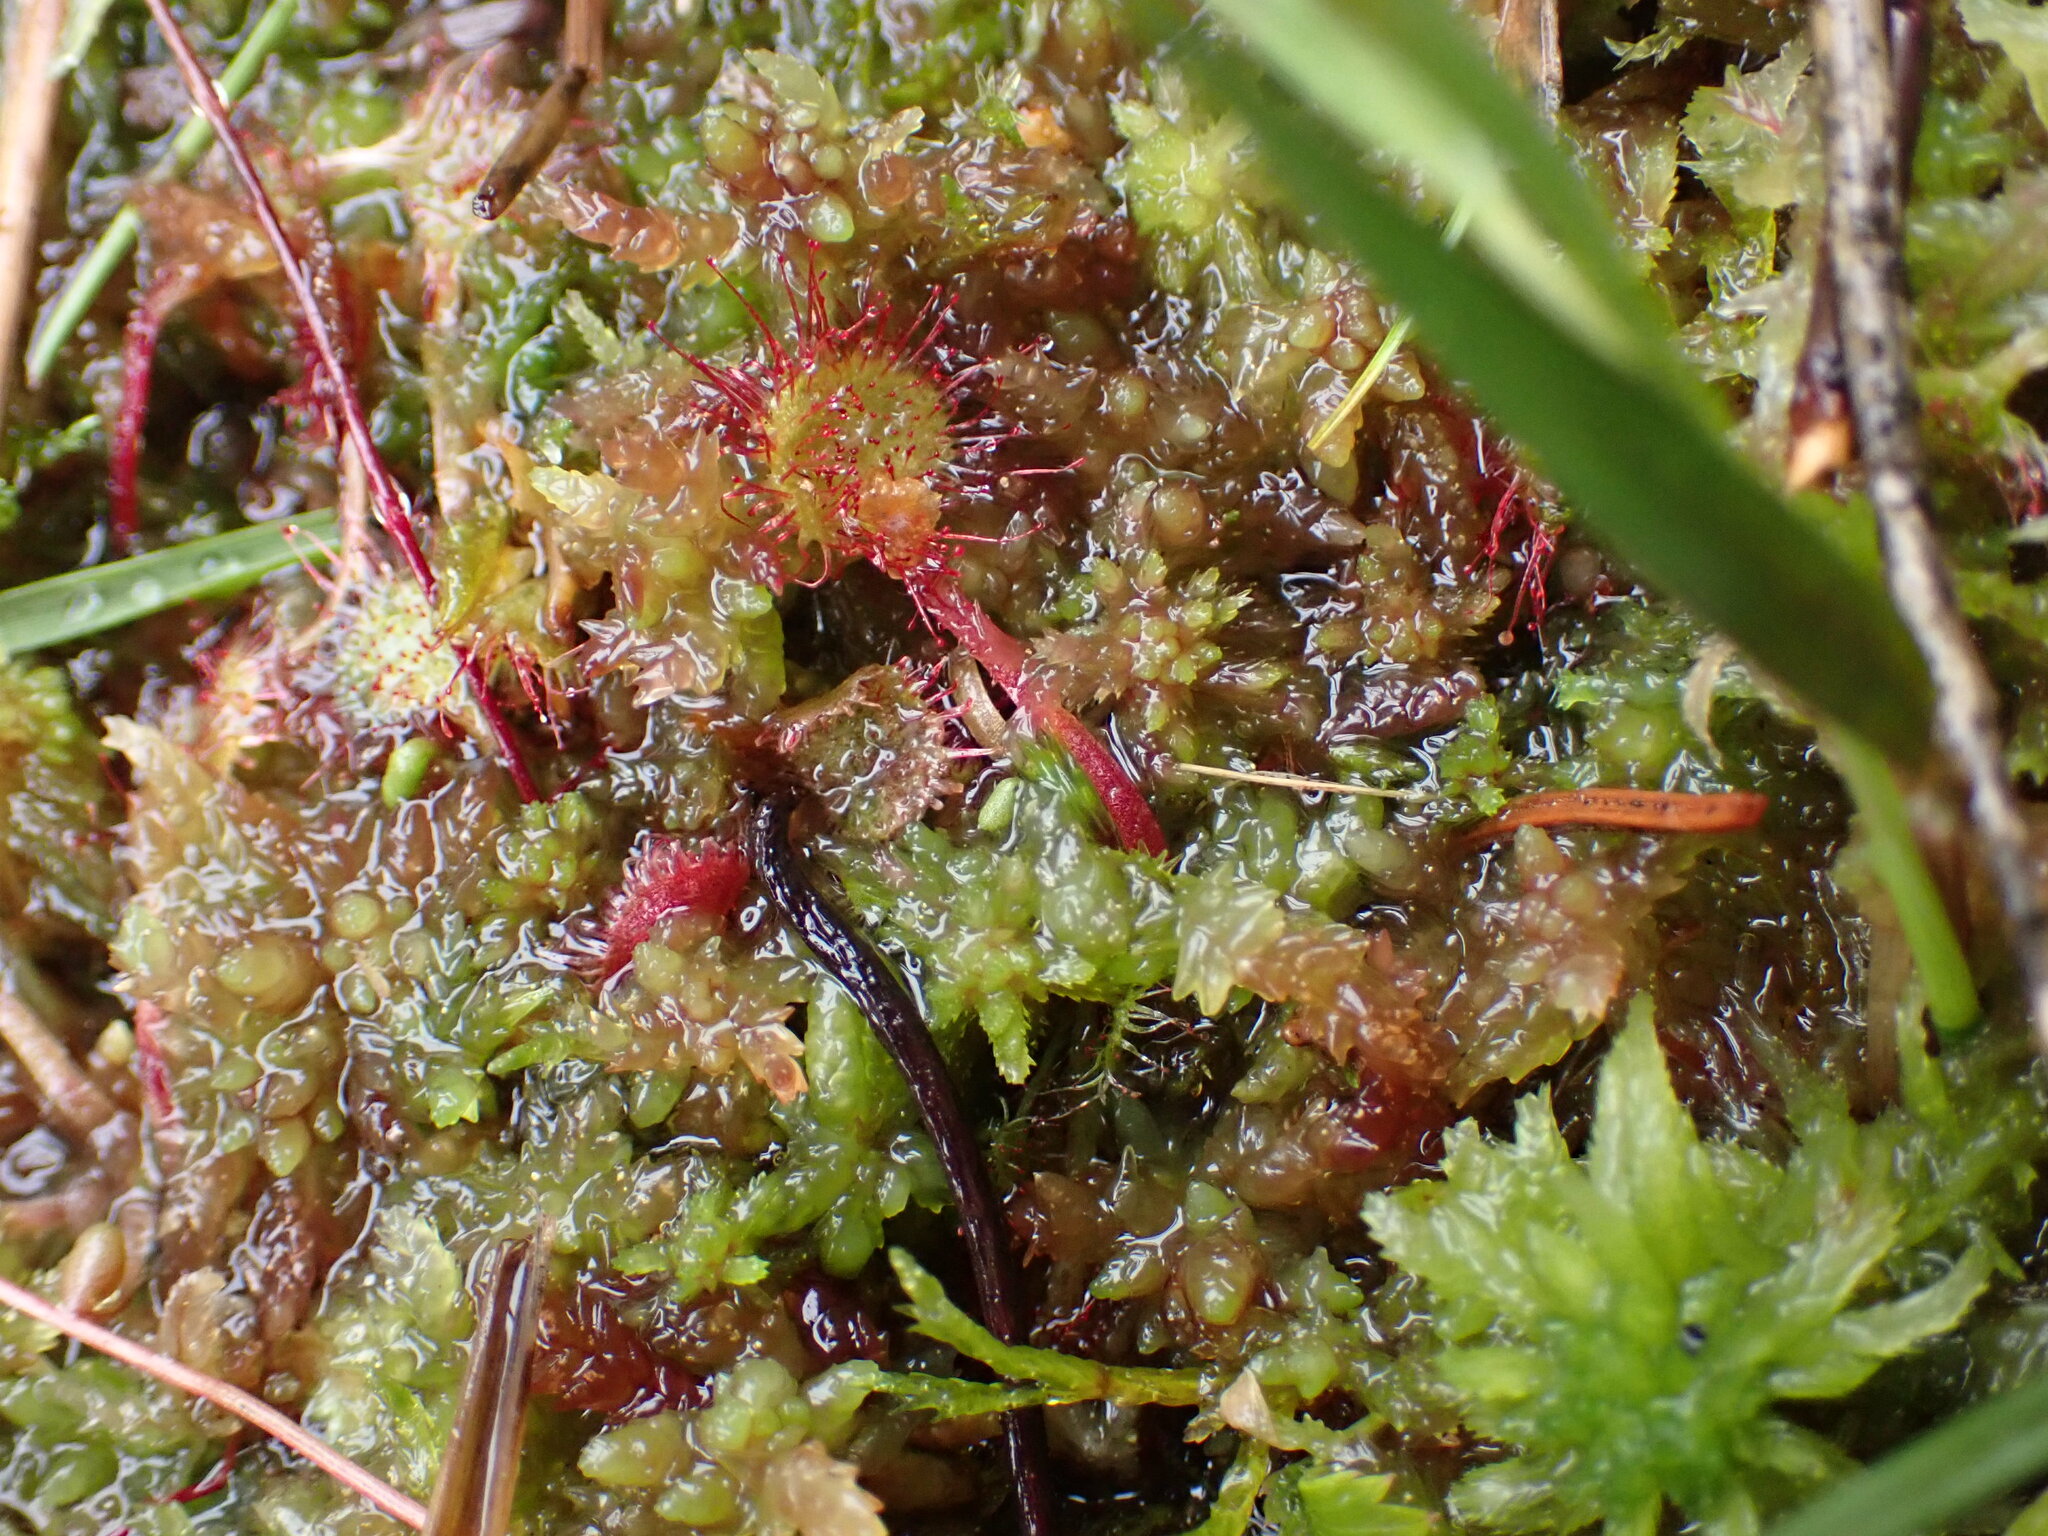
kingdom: Plantae
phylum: Tracheophyta
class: Magnoliopsida
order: Caryophyllales
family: Droseraceae
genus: Drosera
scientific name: Drosera rotundifolia
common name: Round-leaved sundew
